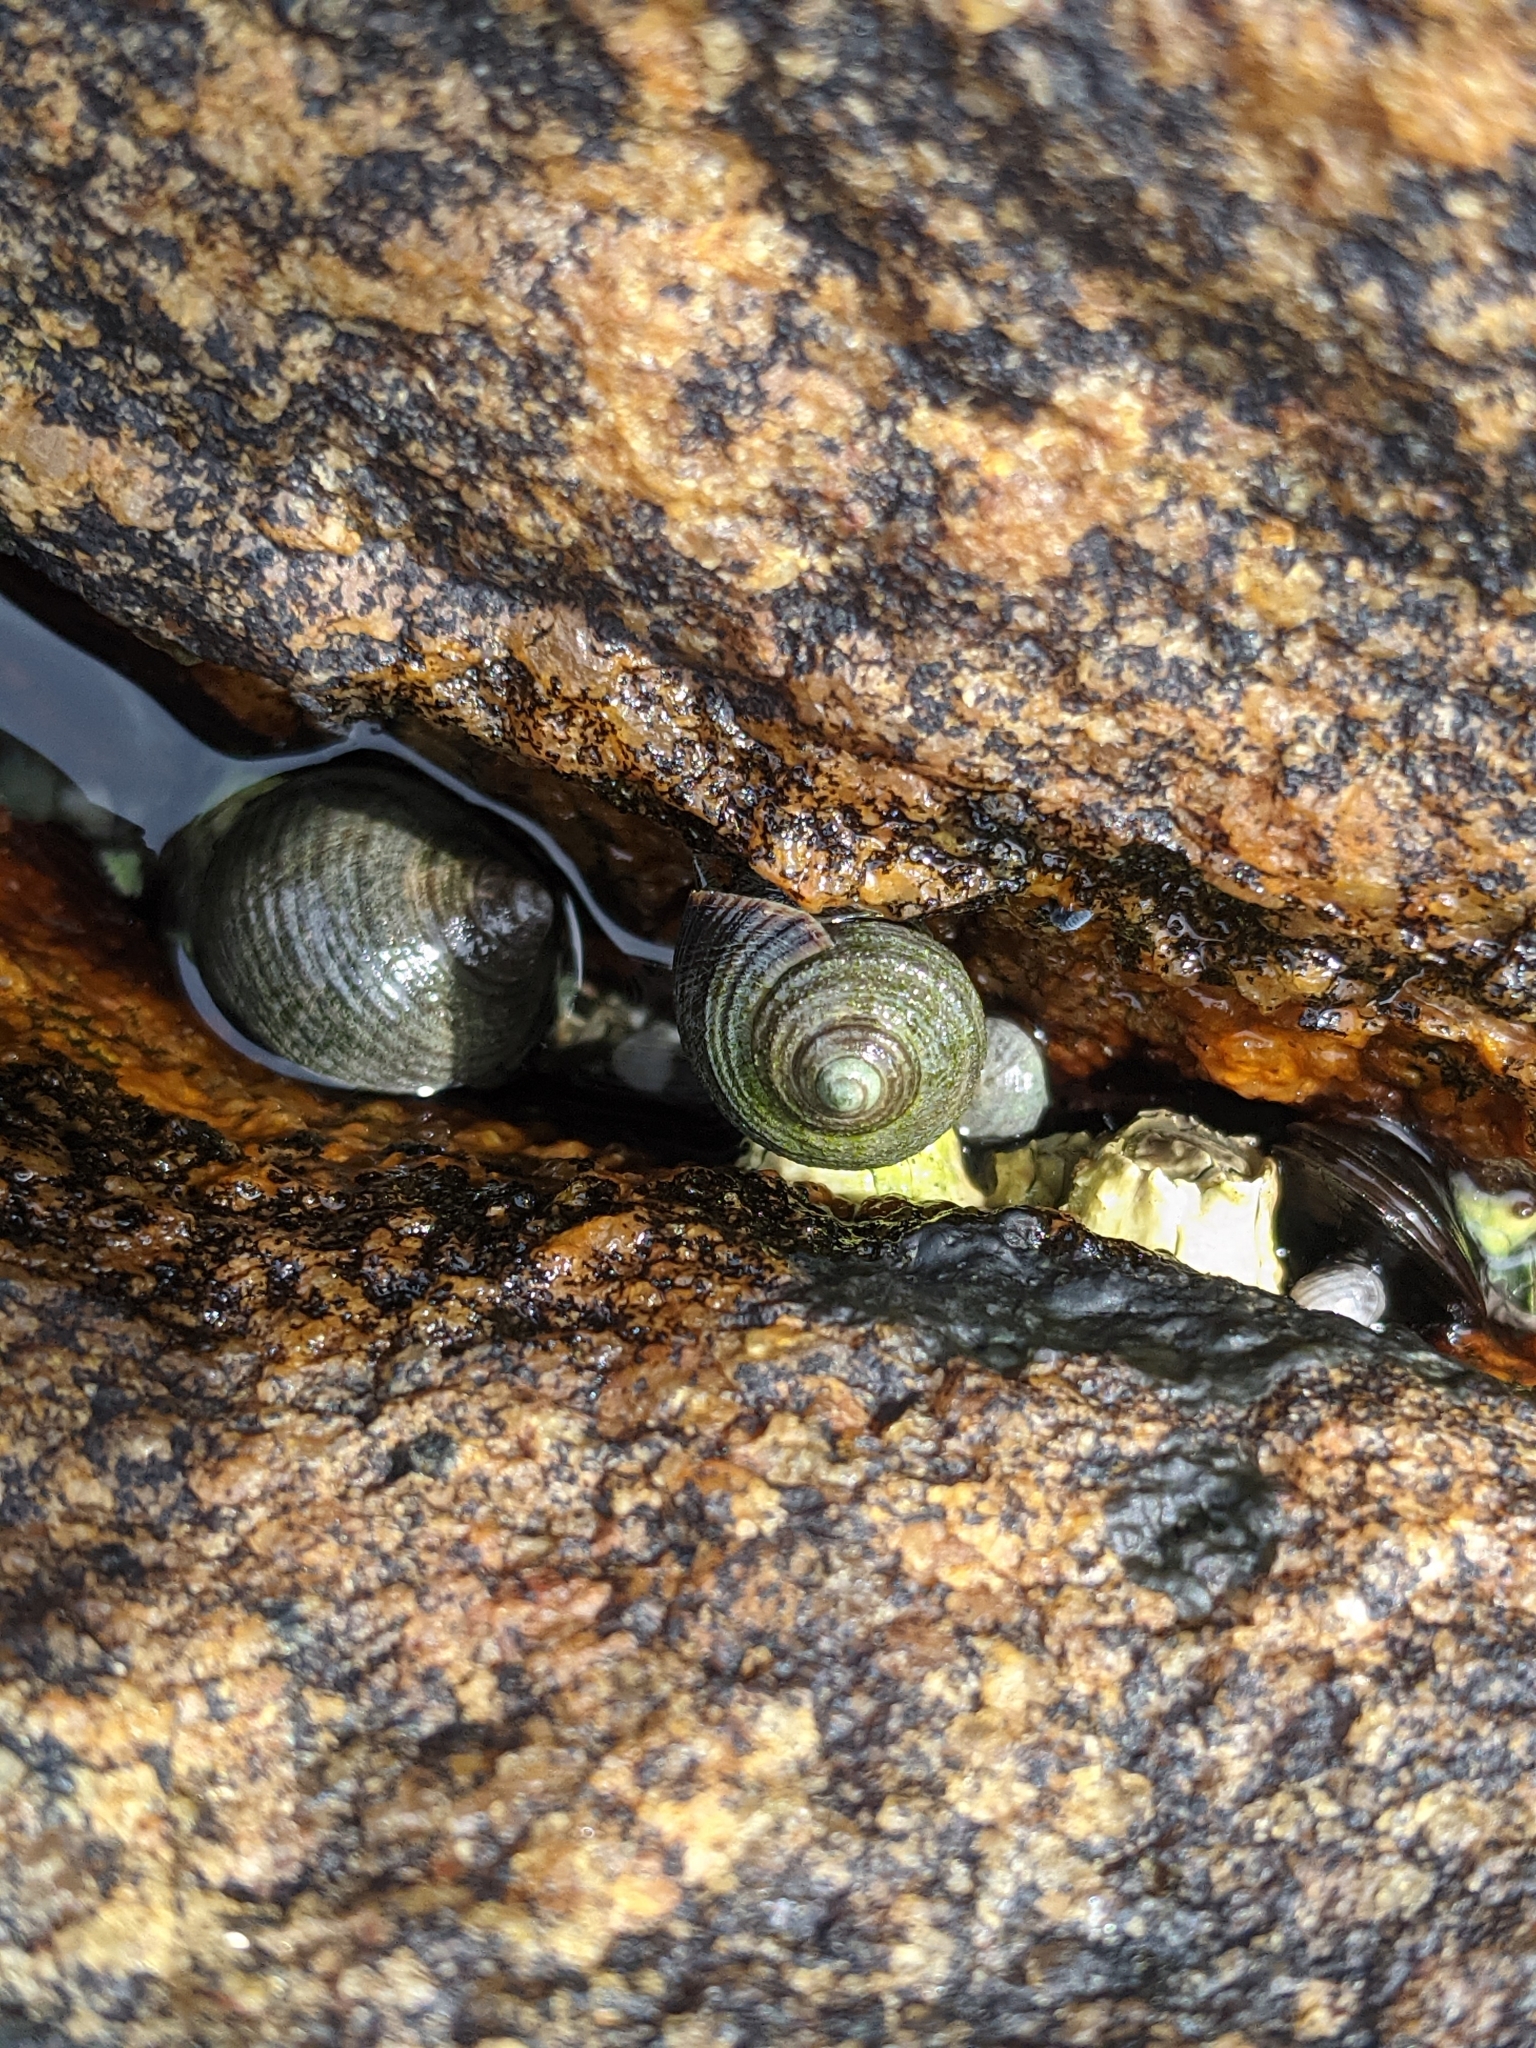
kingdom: Animalia
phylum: Mollusca
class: Gastropoda
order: Littorinimorpha
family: Littorinidae
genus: Littorina
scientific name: Littorina littorea
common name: Common periwinkle
